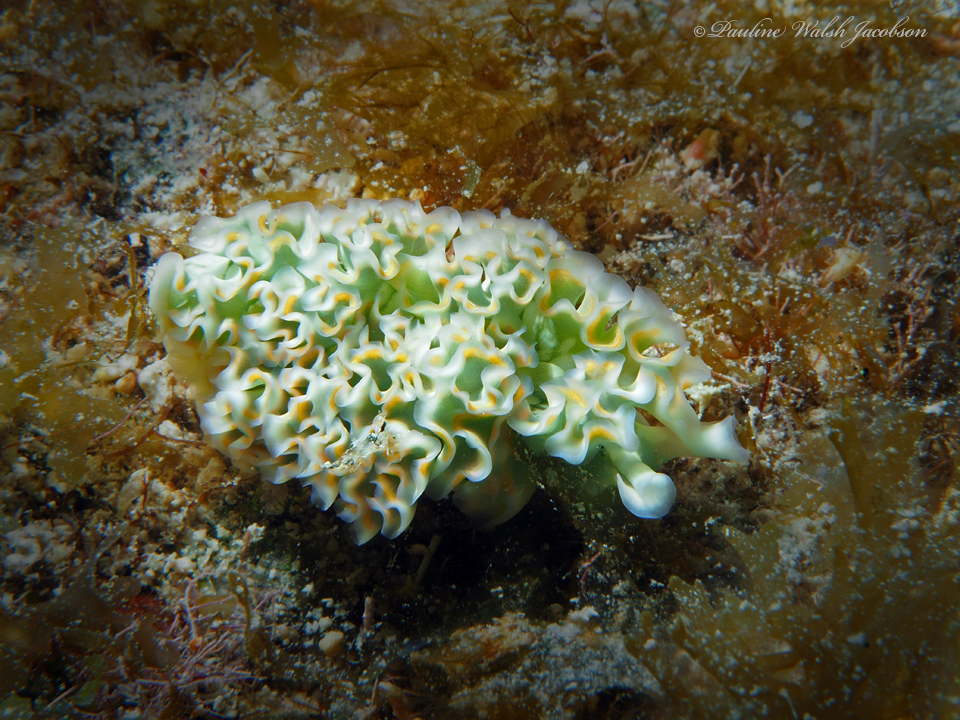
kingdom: Animalia
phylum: Mollusca
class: Gastropoda
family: Plakobranchidae
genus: Elysia
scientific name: Elysia crispata
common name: Lettuce slug
